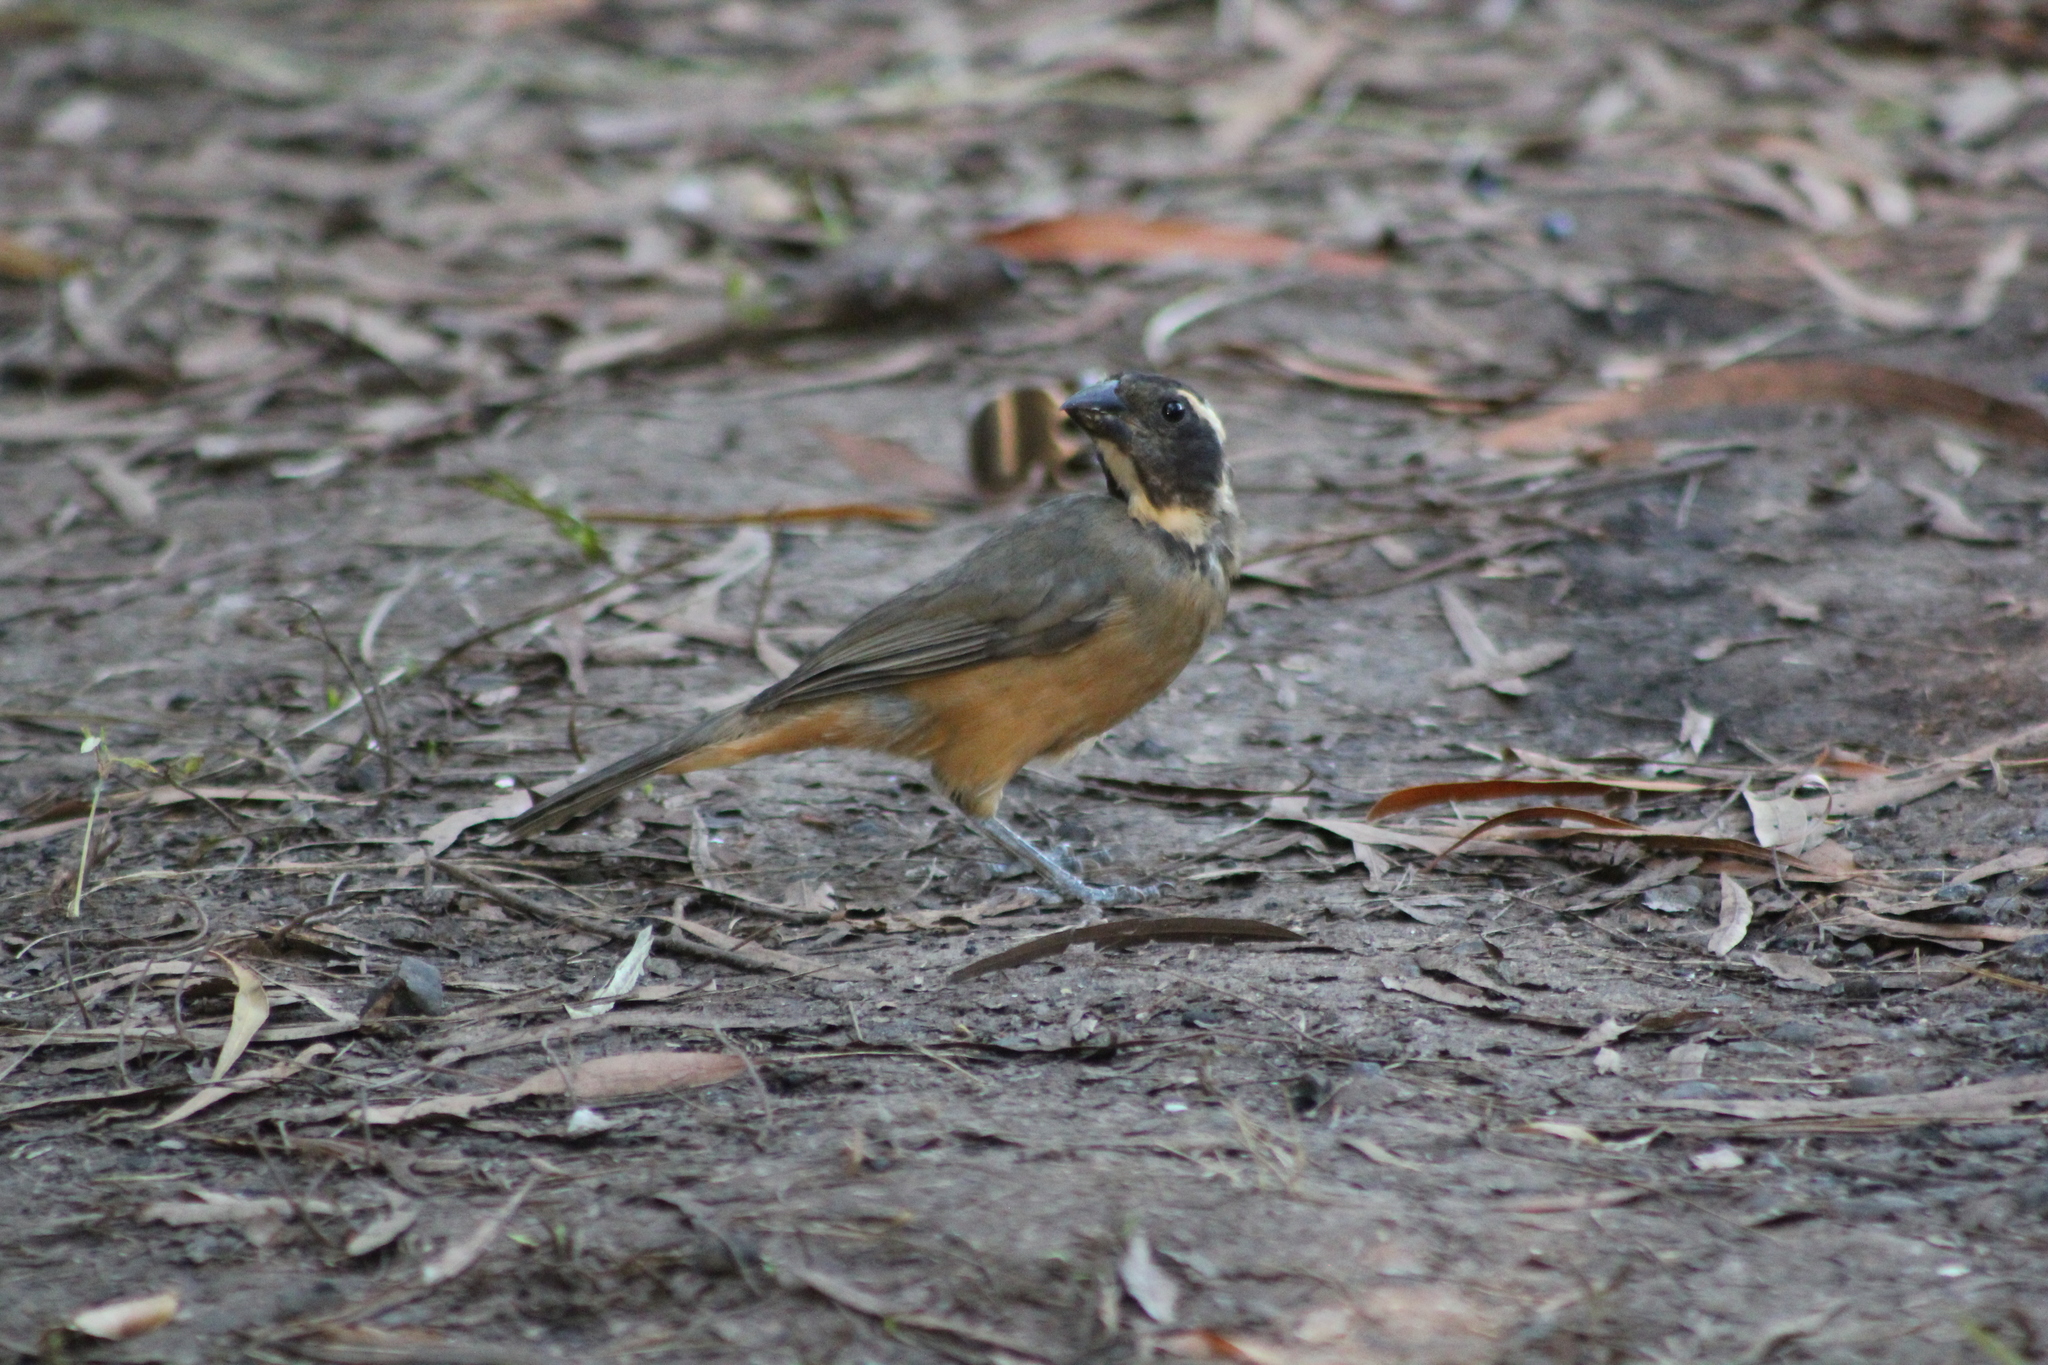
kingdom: Animalia
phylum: Chordata
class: Aves
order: Passeriformes
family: Thraupidae
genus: Saltator
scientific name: Saltator aurantiirostris
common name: Golden-billed saltator
